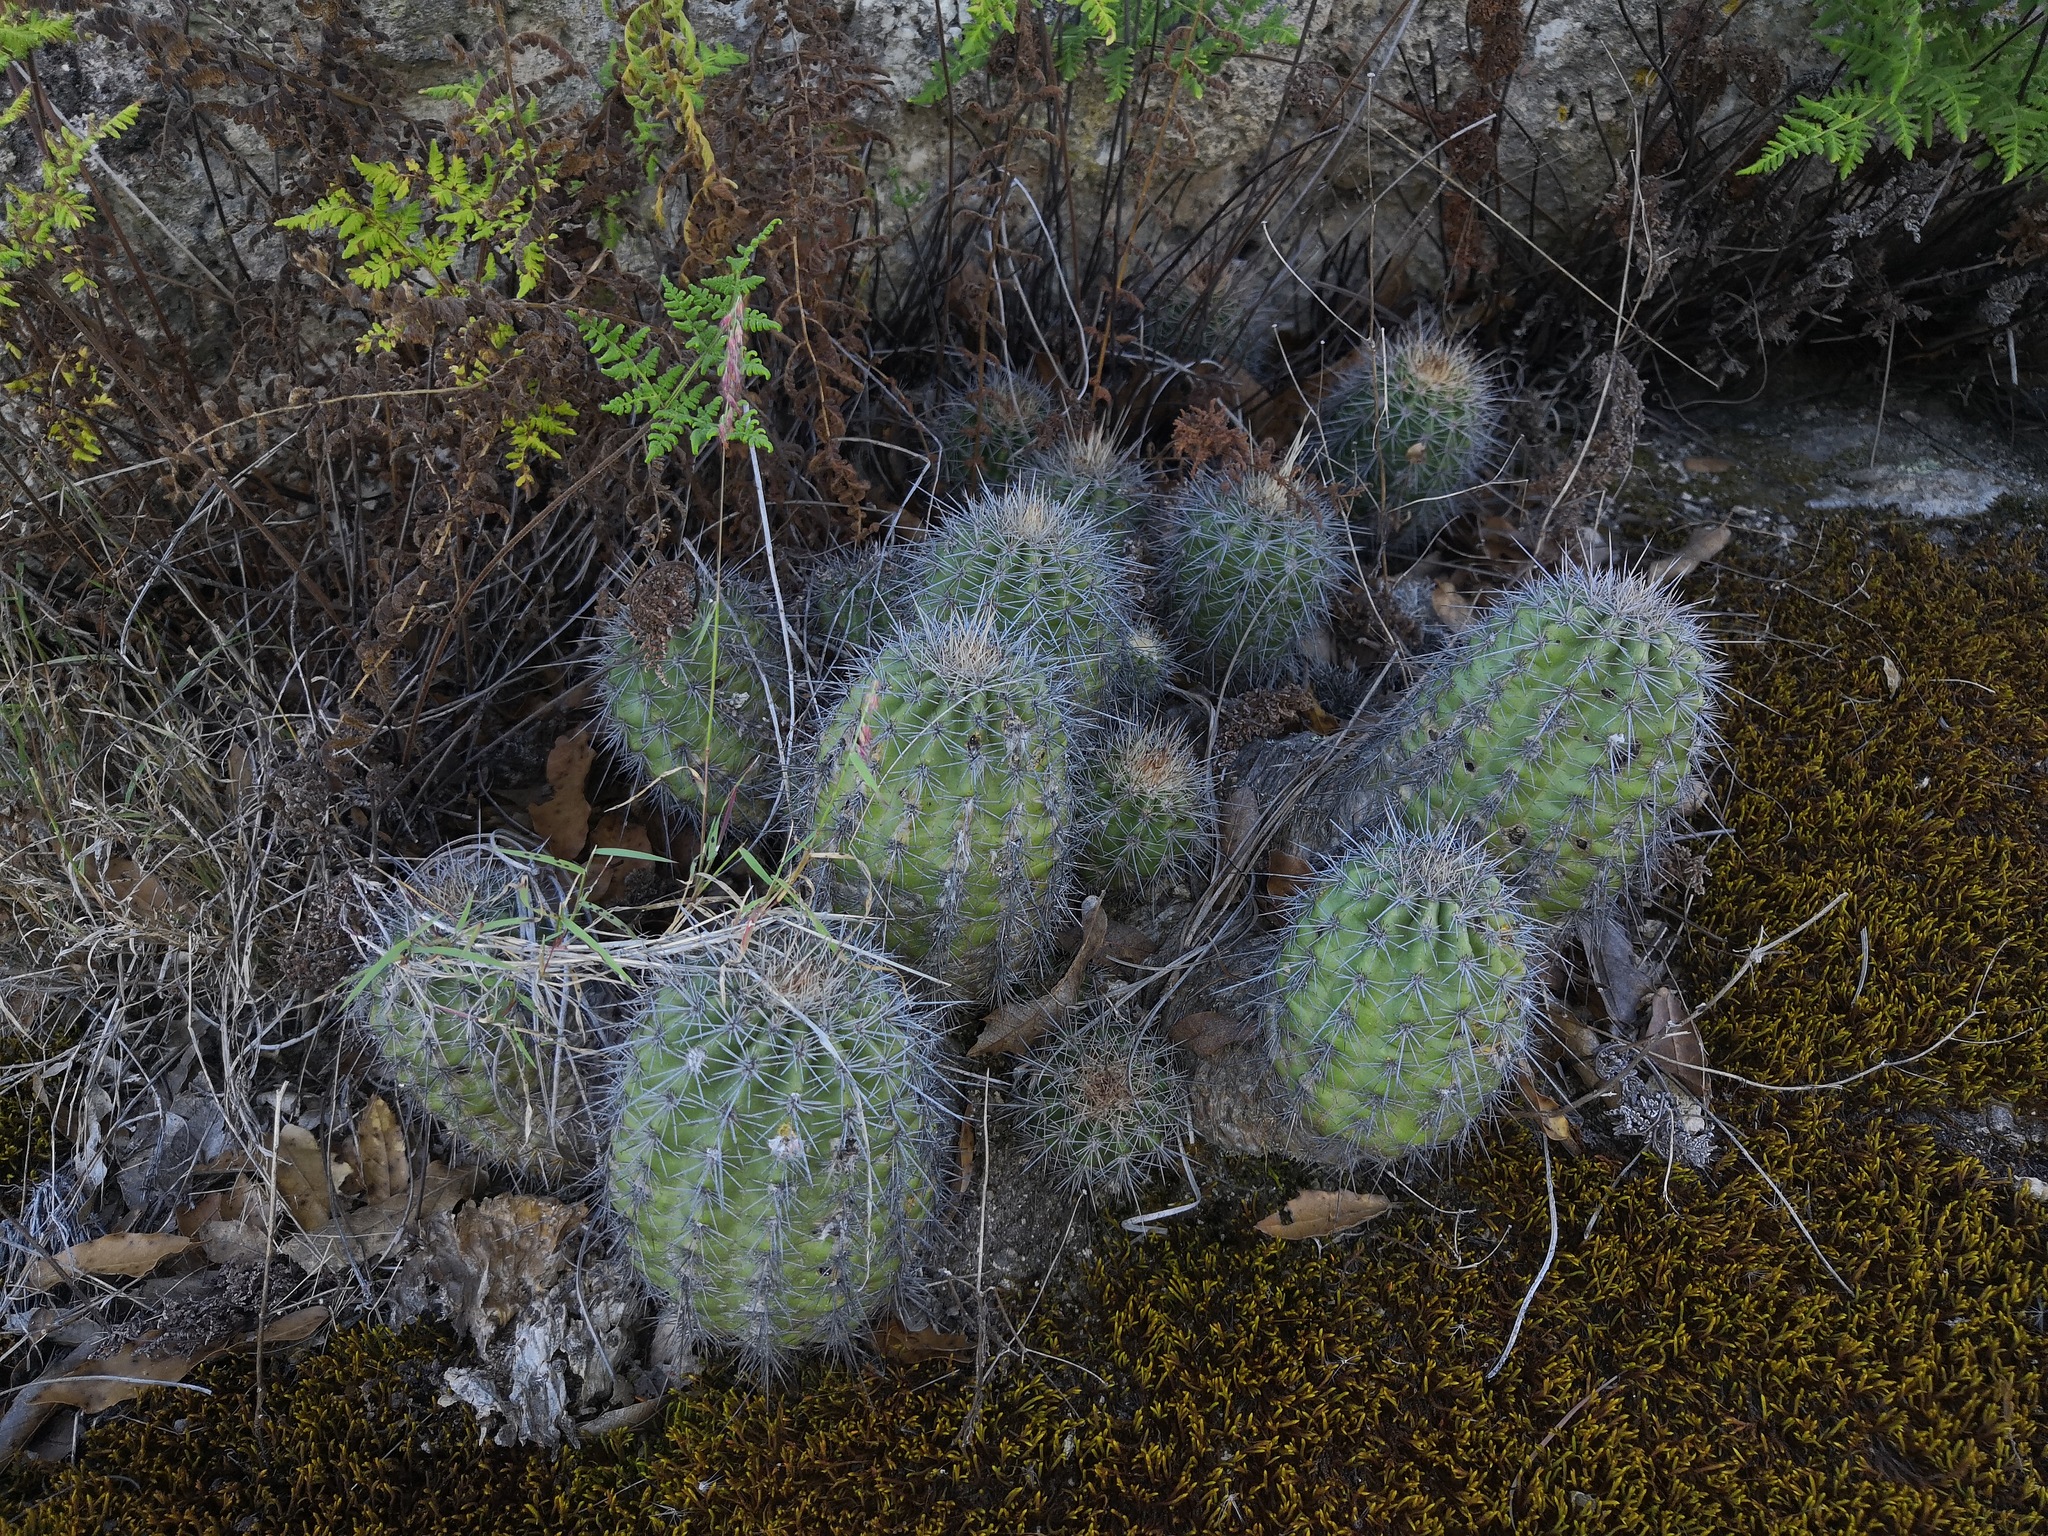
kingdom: Plantae
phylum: Tracheophyta
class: Magnoliopsida
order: Caryophyllales
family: Cactaceae
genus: Echinocereus
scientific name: Echinocereus acifer
